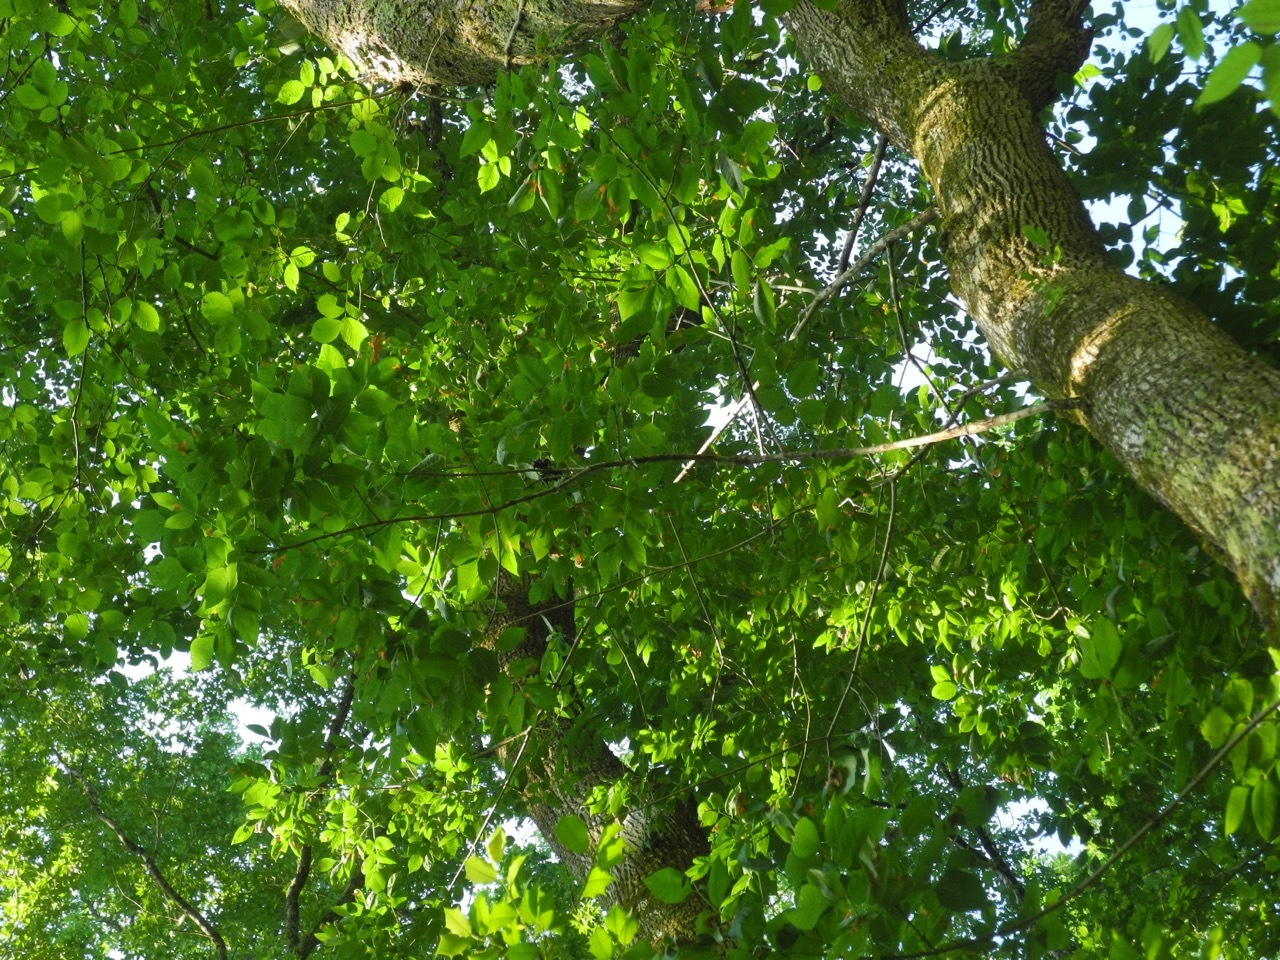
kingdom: Plantae
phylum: Tracheophyta
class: Magnoliopsida
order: Lamiales
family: Oleaceae
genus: Fraxinus
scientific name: Fraxinus americana
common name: White ash
